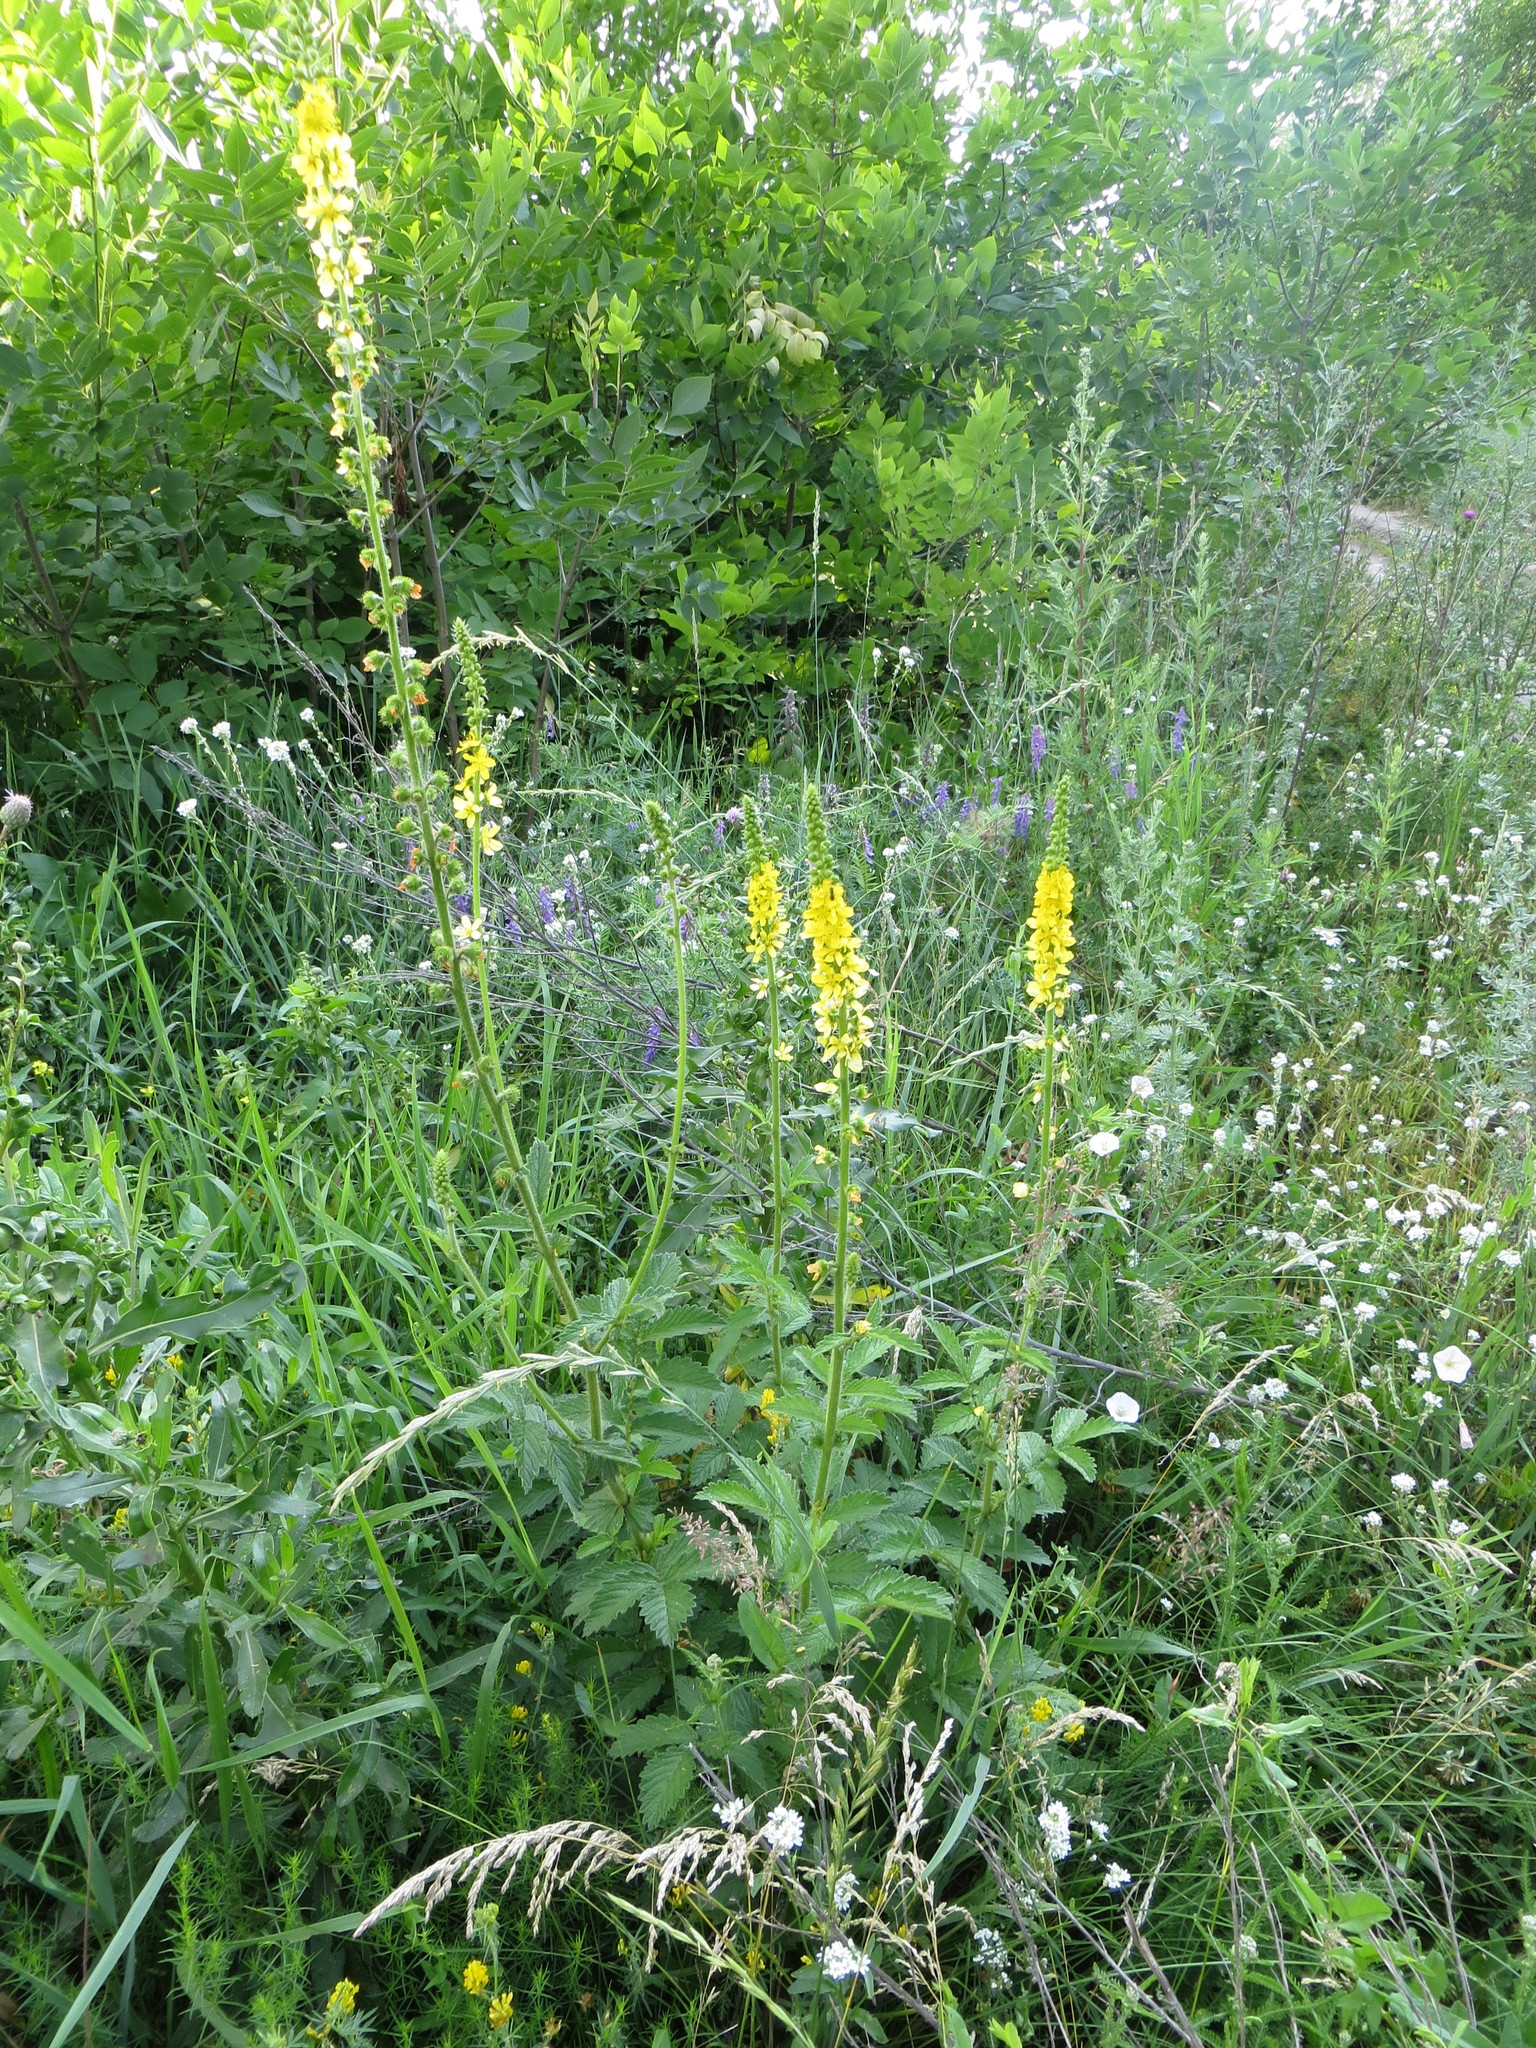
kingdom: Plantae
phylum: Tracheophyta
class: Magnoliopsida
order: Rosales
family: Rosaceae
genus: Agrimonia
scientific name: Agrimonia eupatoria
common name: Agrimony
